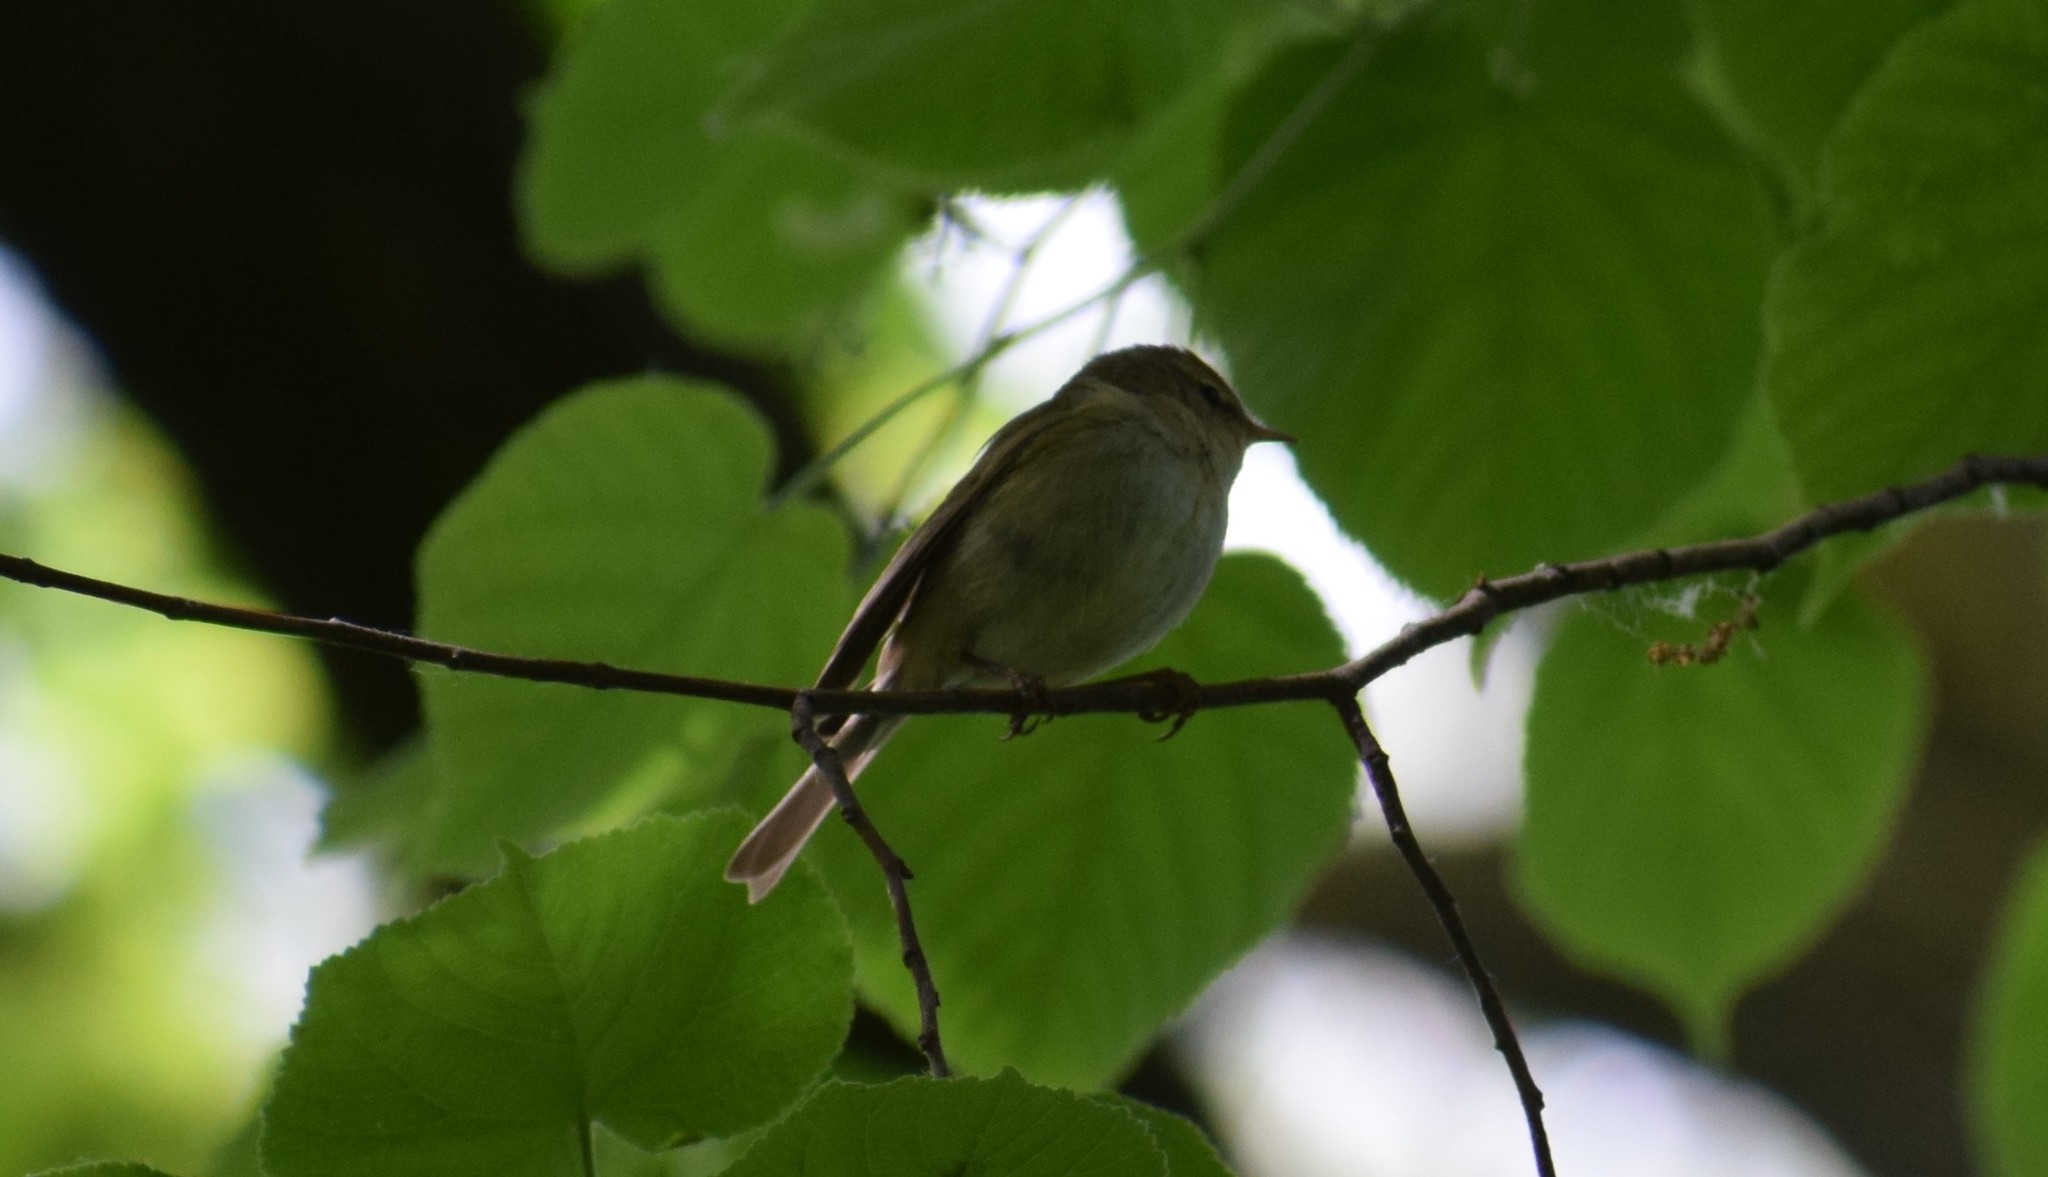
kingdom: Animalia
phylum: Chordata
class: Aves
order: Passeriformes
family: Phylloscopidae
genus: Phylloscopus
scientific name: Phylloscopus
